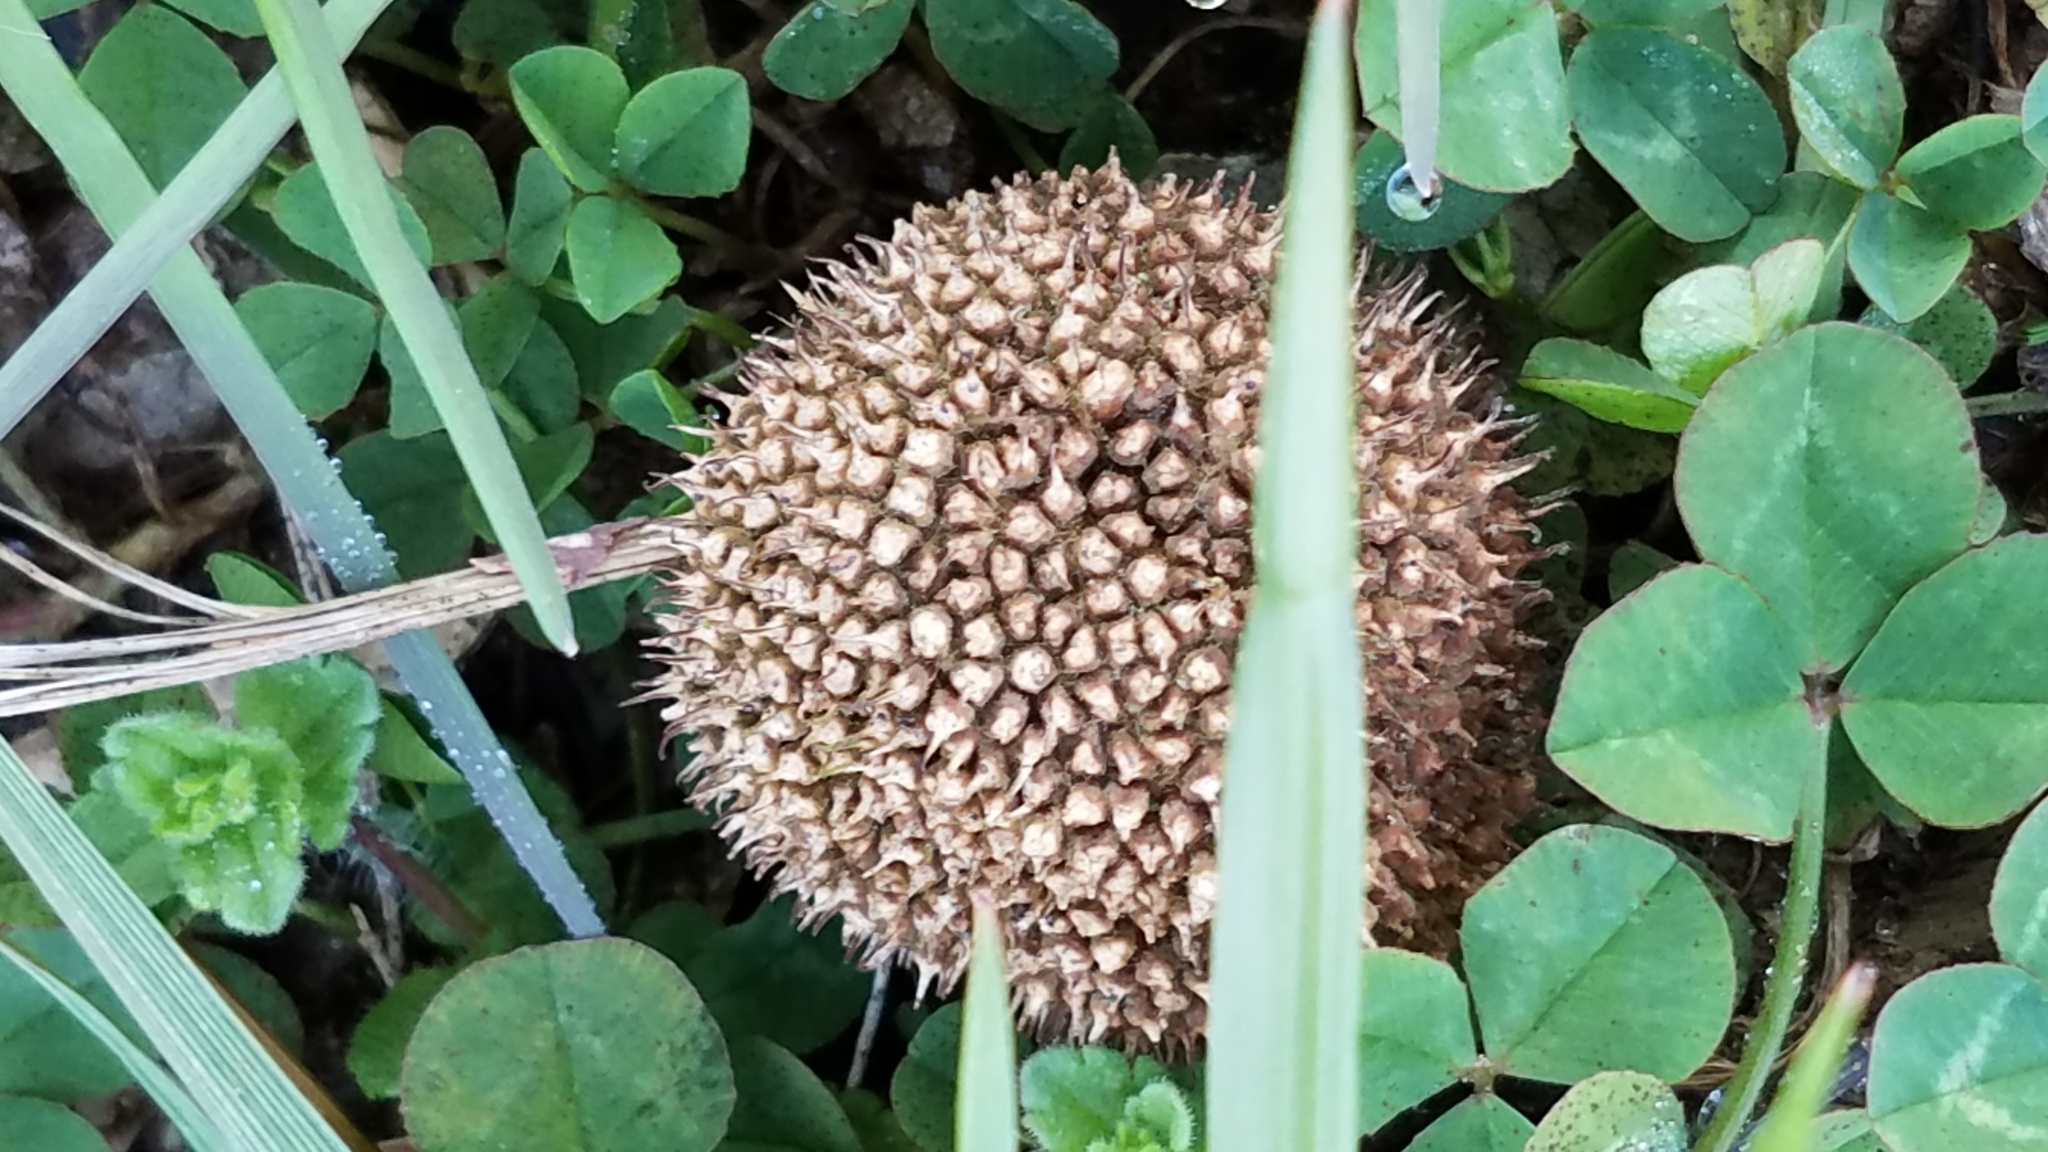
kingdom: Plantae
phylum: Tracheophyta
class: Magnoliopsida
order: Proteales
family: Platanaceae
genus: Platanus
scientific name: Platanus occidentalis
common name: American sycamore
